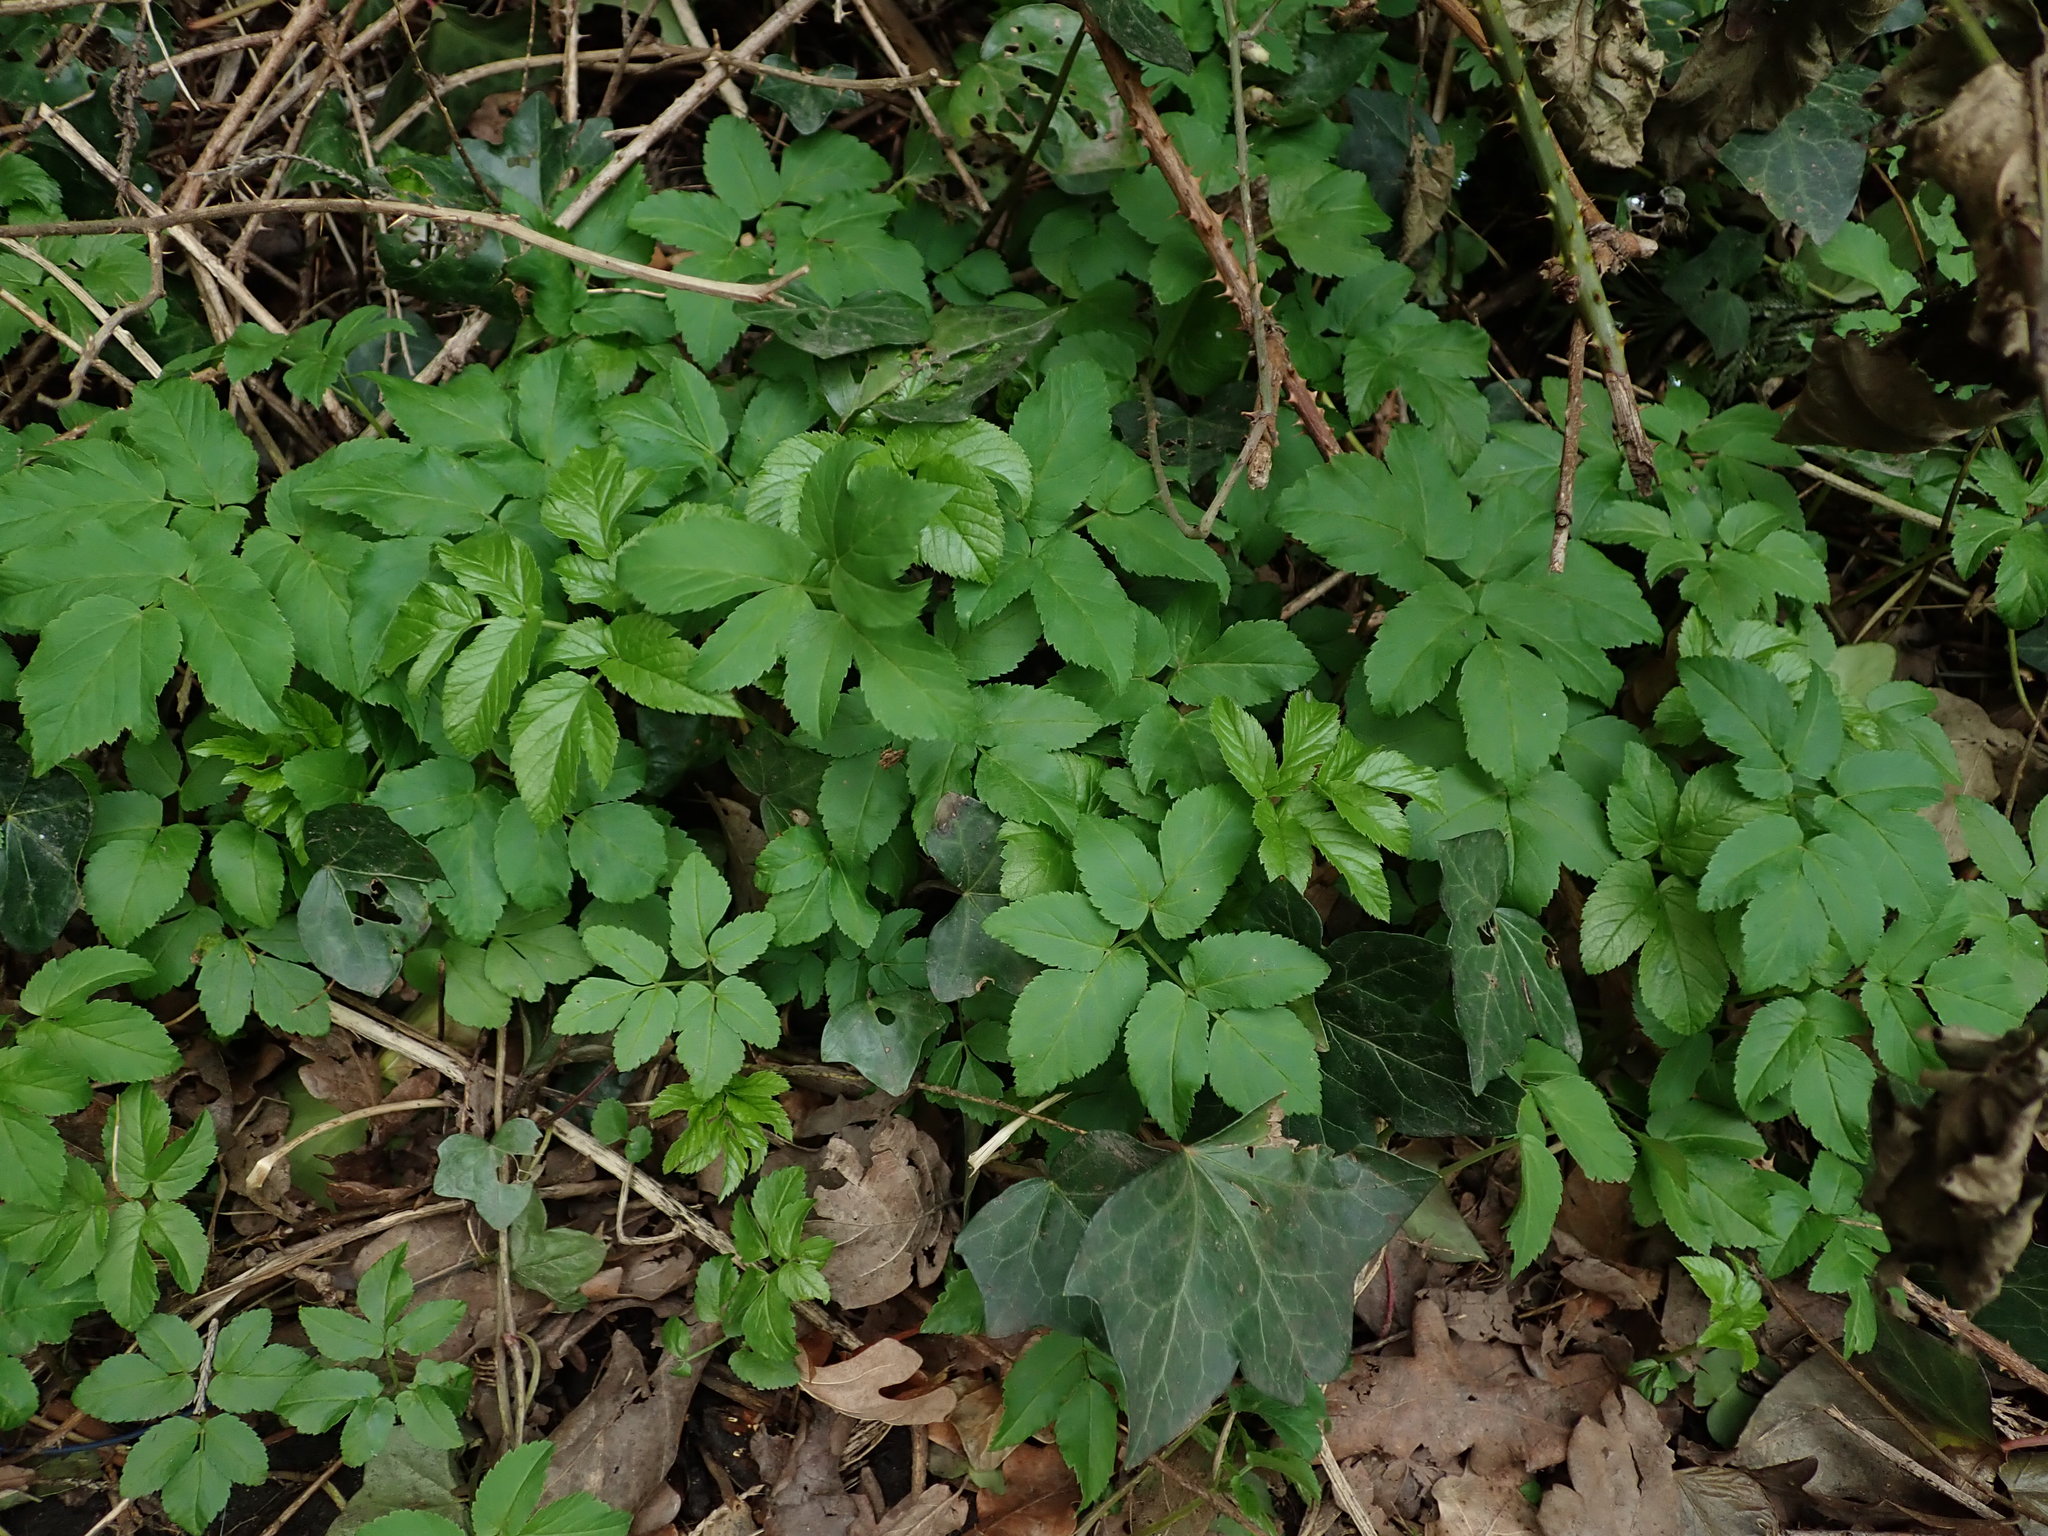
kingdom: Plantae
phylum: Tracheophyta
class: Magnoliopsida
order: Apiales
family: Apiaceae
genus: Aegopodium
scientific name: Aegopodium podagraria
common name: Ground-elder
